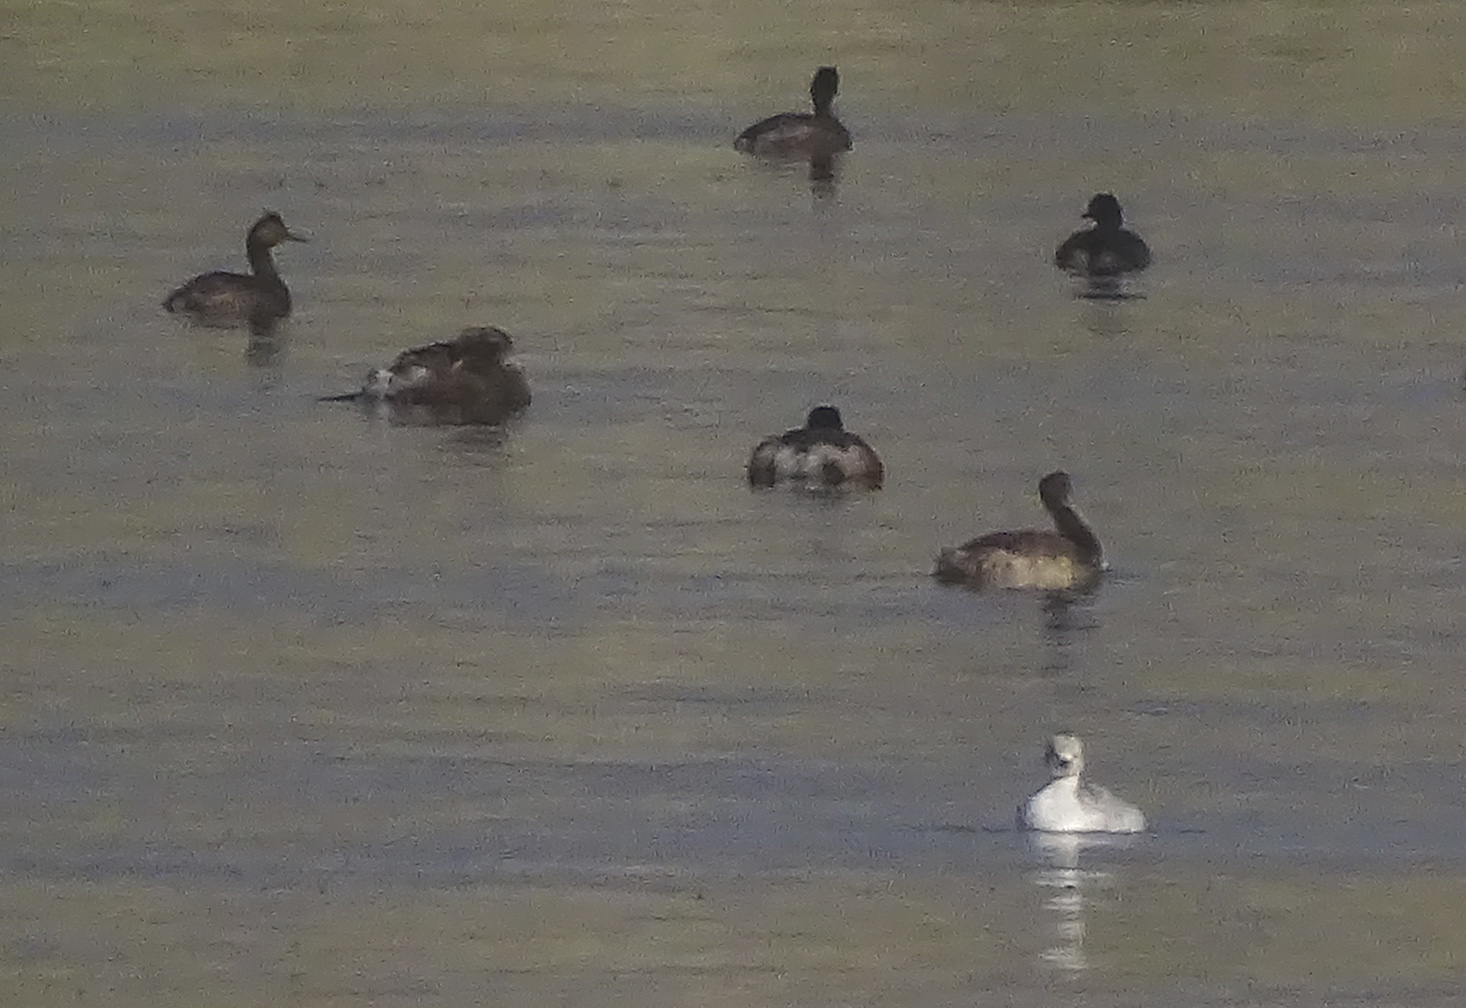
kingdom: Animalia
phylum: Chordata
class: Aves
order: Podicipediformes
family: Podicipedidae
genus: Podiceps
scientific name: Podiceps nigricollis
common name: Black-necked grebe
